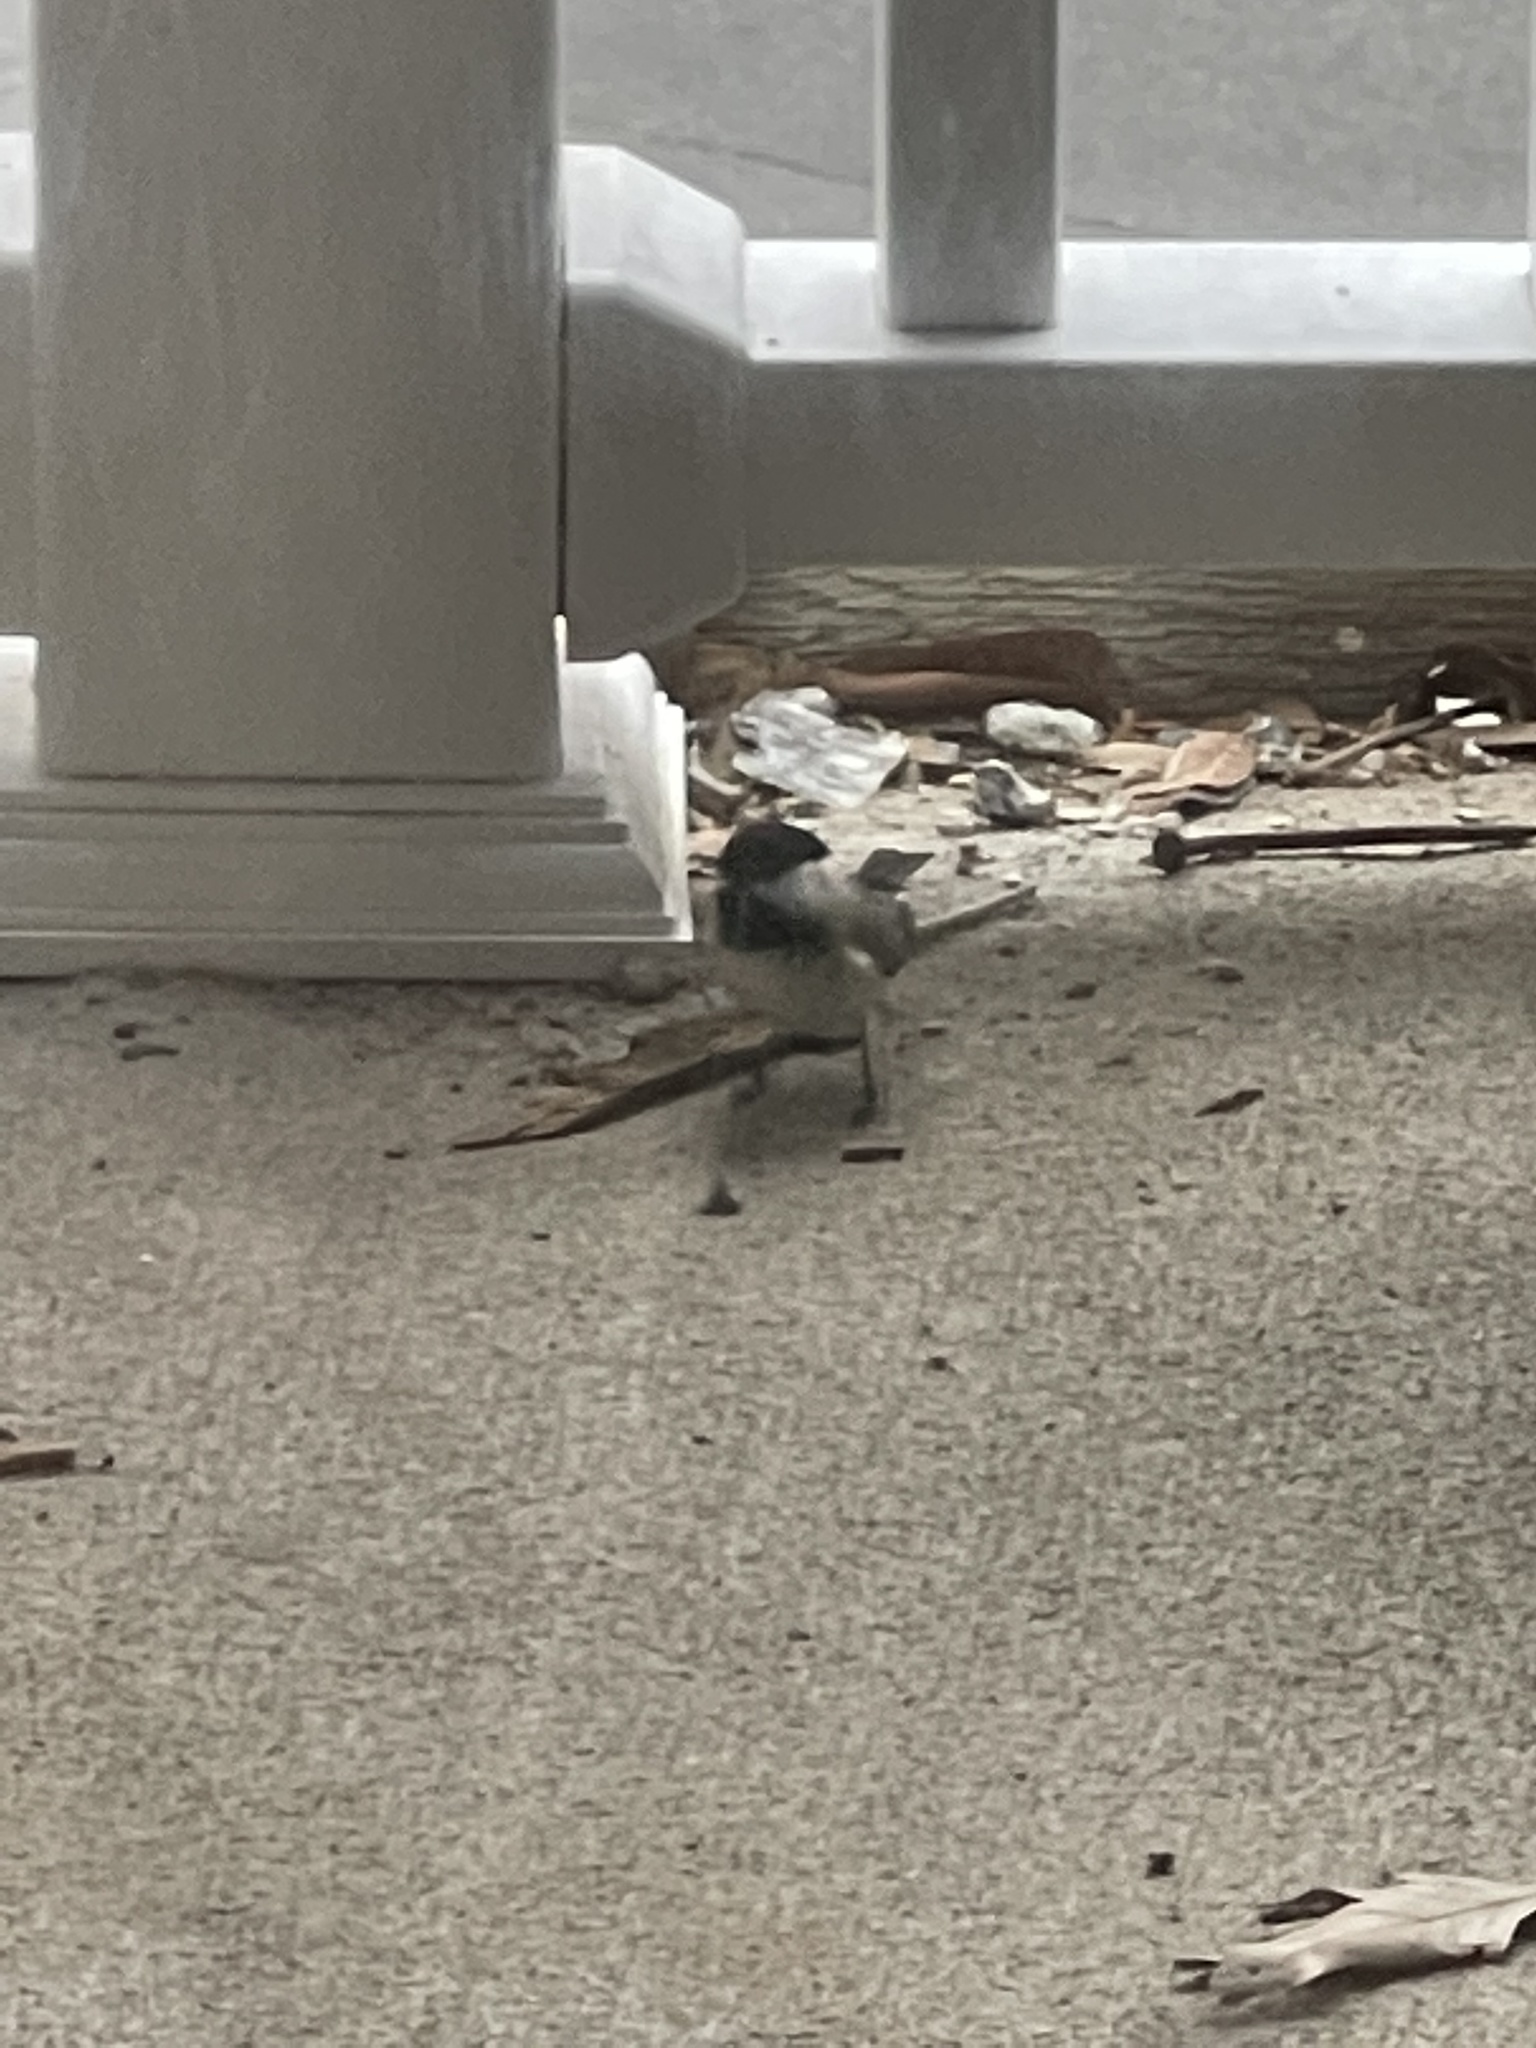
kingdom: Animalia
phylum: Chordata
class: Aves
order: Passeriformes
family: Paridae
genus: Poecile
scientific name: Poecile carolinensis
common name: Carolina chickadee
